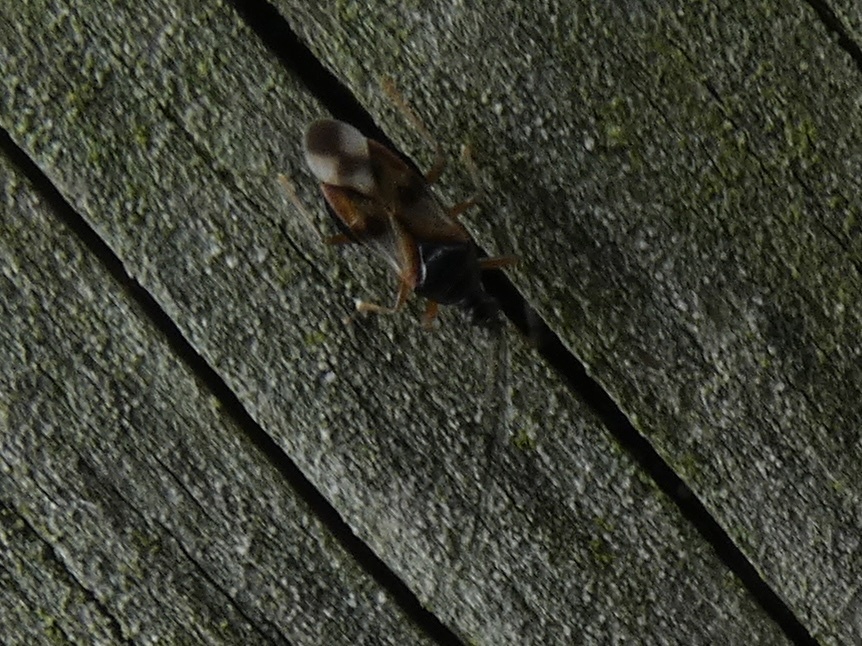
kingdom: Animalia
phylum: Arthropoda
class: Insecta
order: Hemiptera
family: Anthocoridae
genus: Anthocoris
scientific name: Anthocoris nemorum
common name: Minute pirate bug
